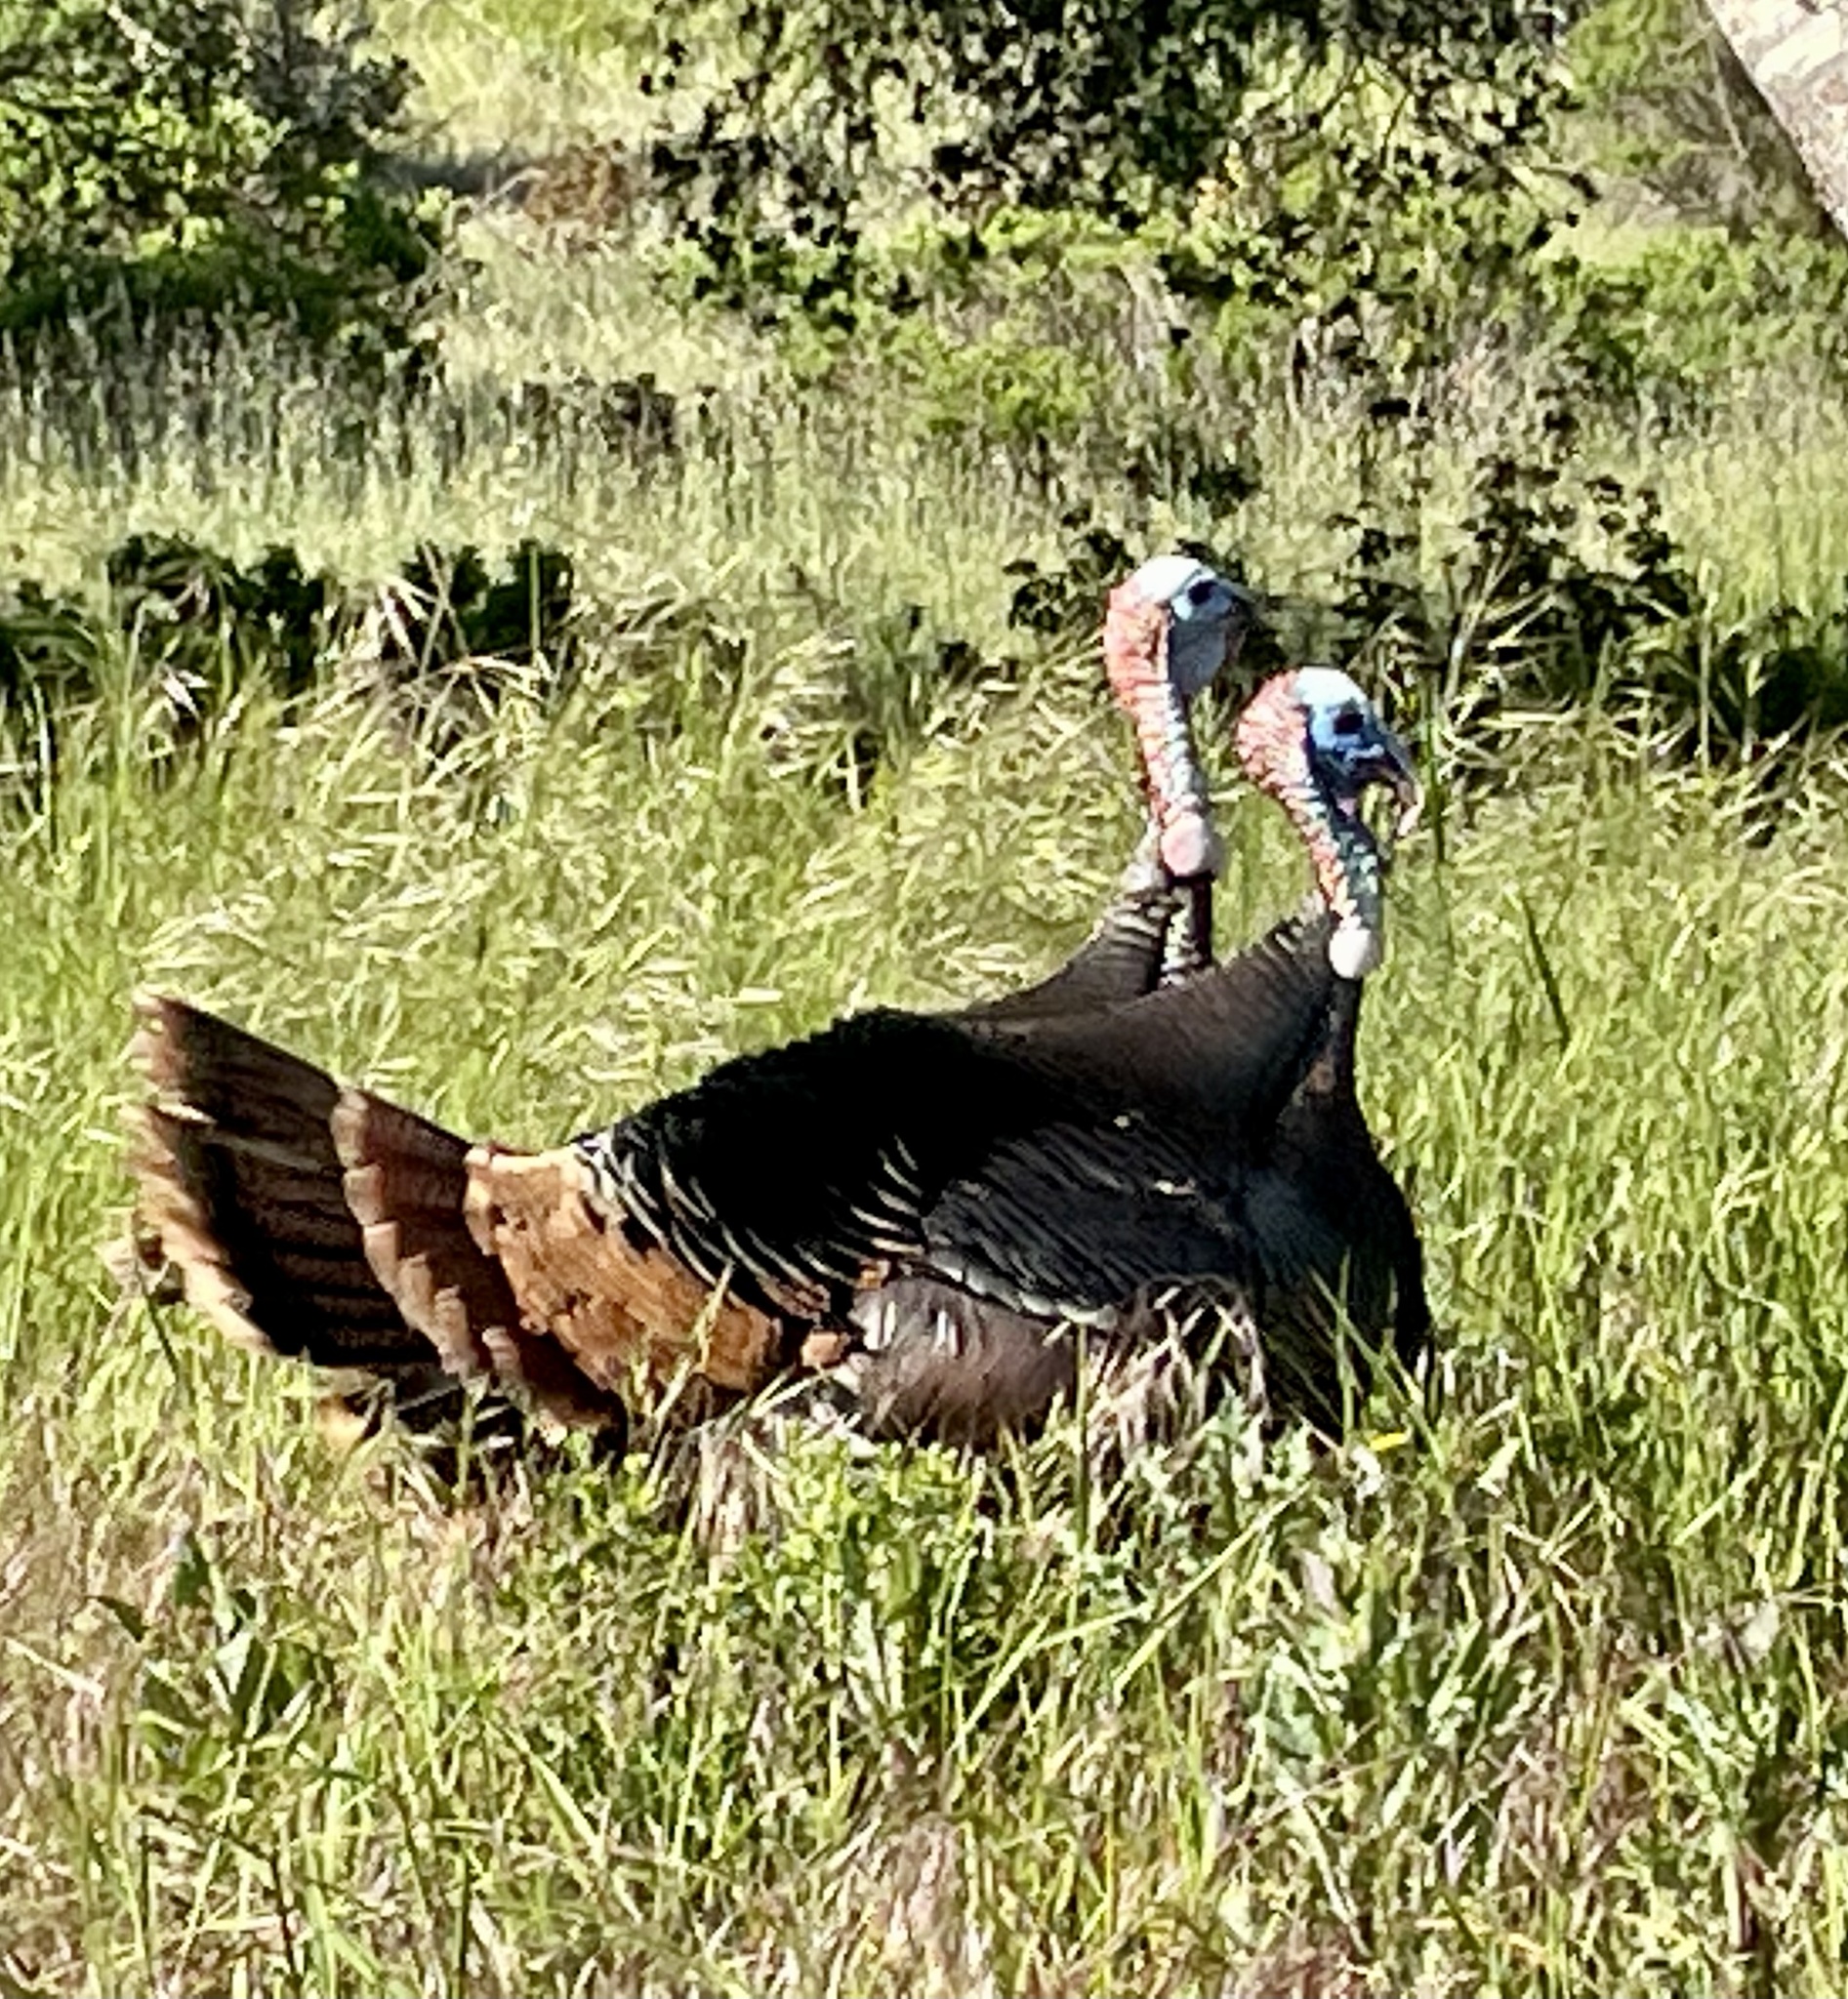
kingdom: Animalia
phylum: Chordata
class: Aves
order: Galliformes
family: Phasianidae
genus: Meleagris
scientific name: Meleagris gallopavo
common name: Wild turkey
